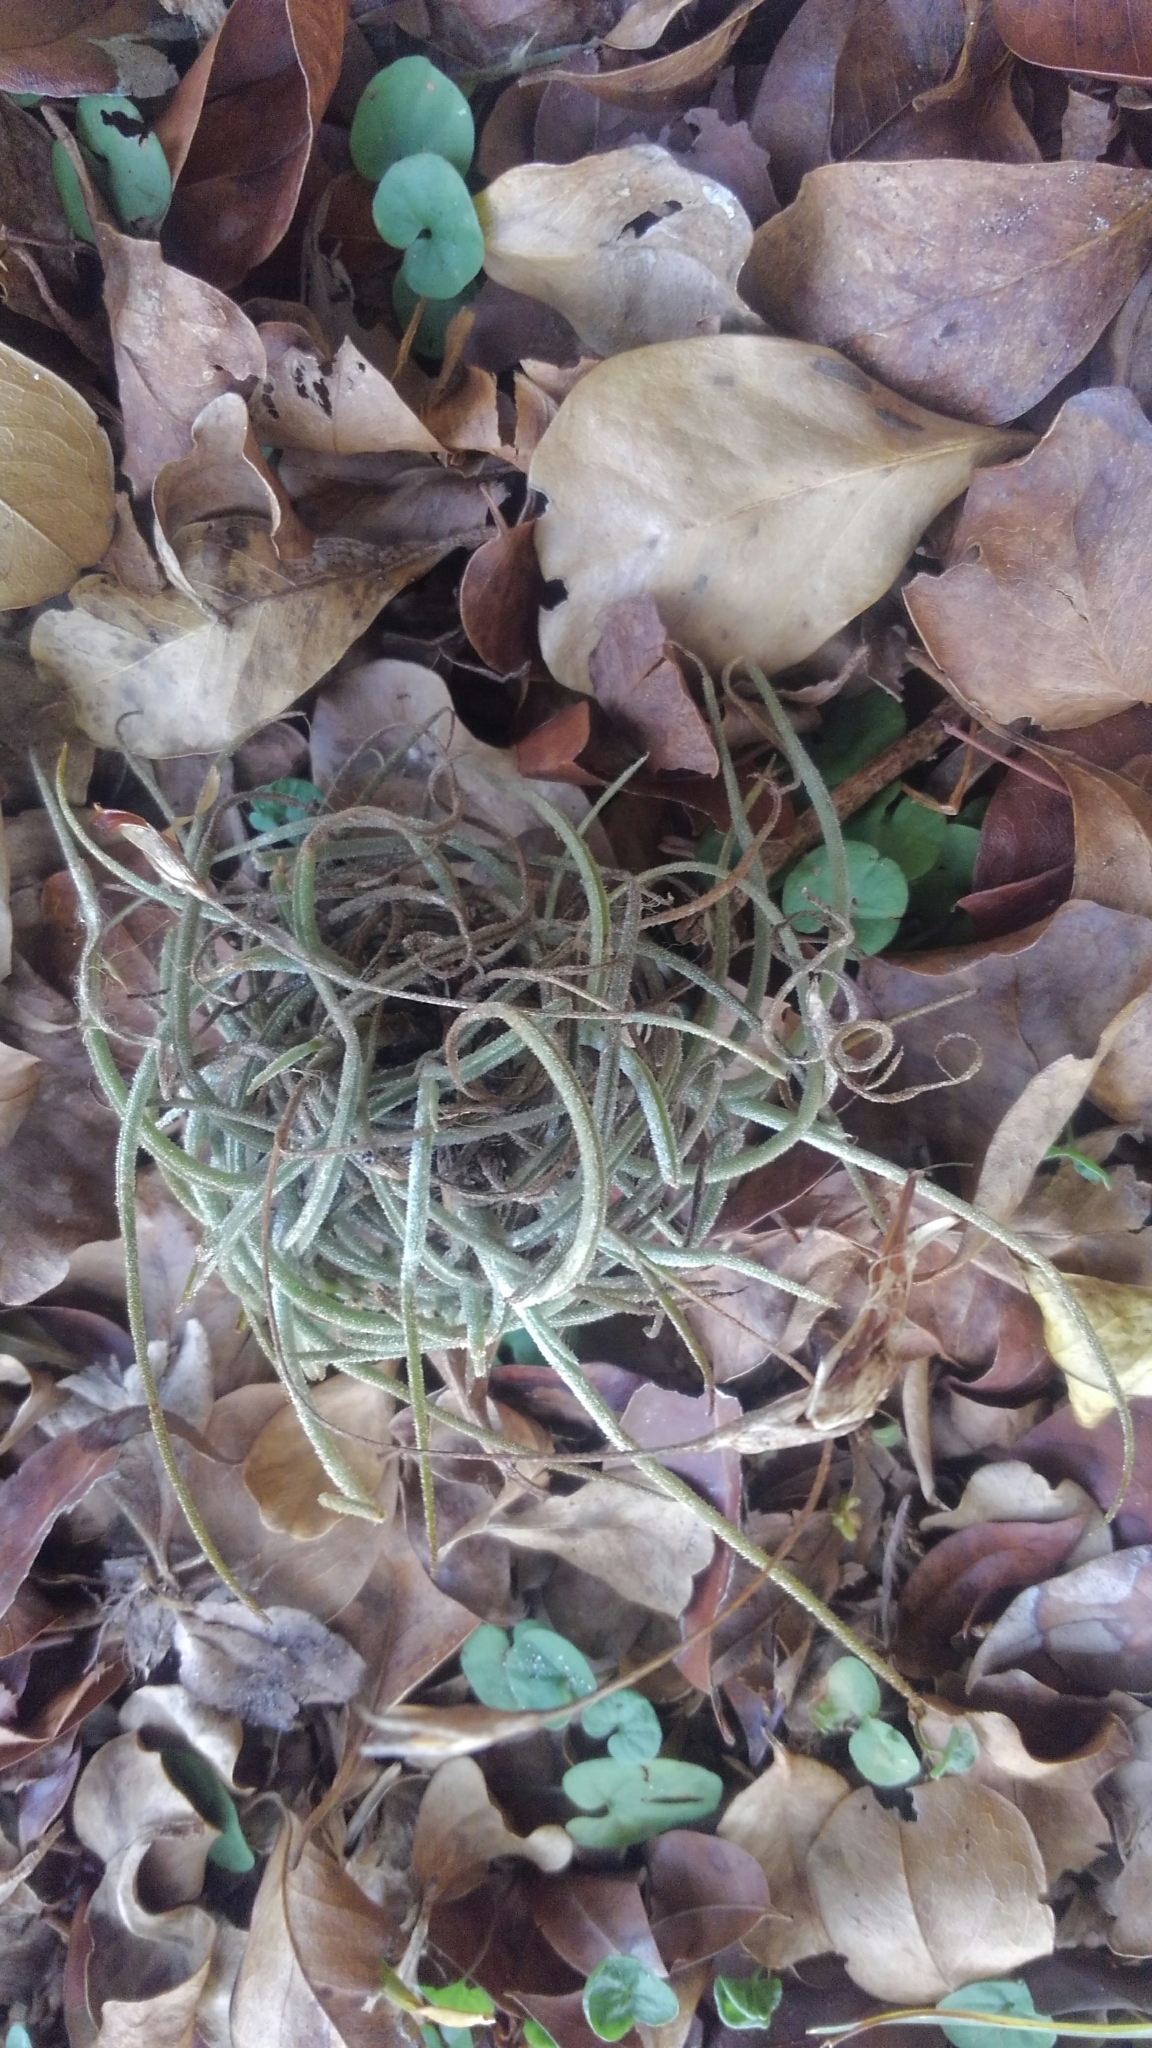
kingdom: Plantae
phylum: Tracheophyta
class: Liliopsida
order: Poales
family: Bromeliaceae
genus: Tillandsia
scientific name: Tillandsia recurvata
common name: Small ballmoss
